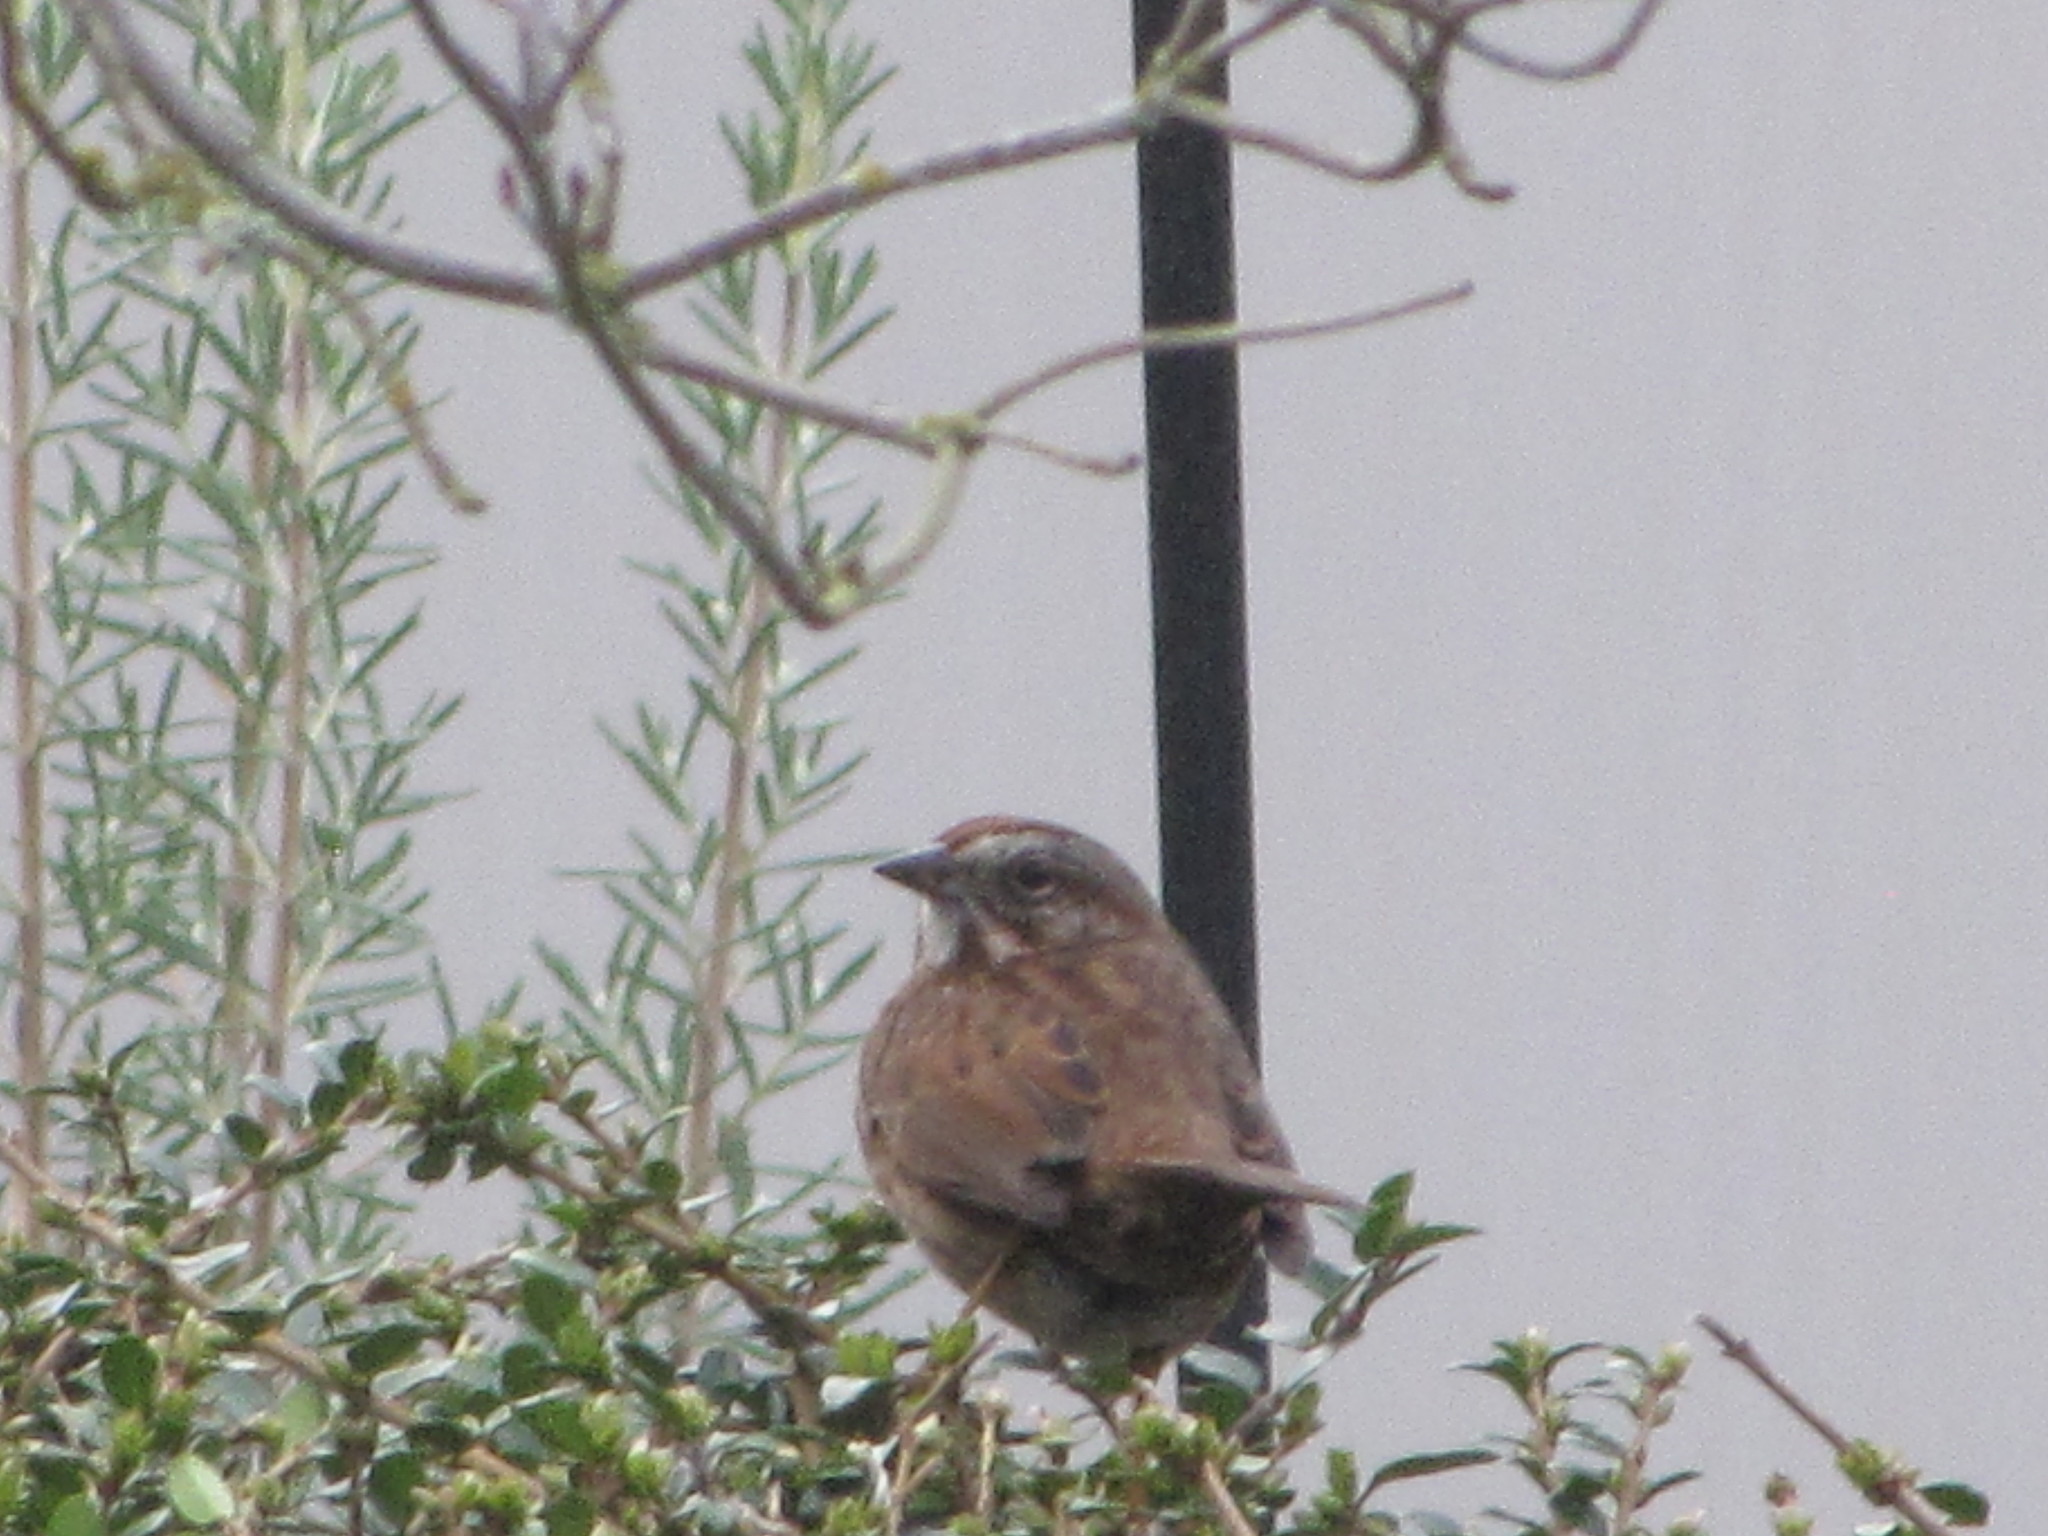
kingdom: Animalia
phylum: Chordata
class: Aves
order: Passeriformes
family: Passerellidae
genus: Melospiza
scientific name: Melospiza melodia
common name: Song sparrow
